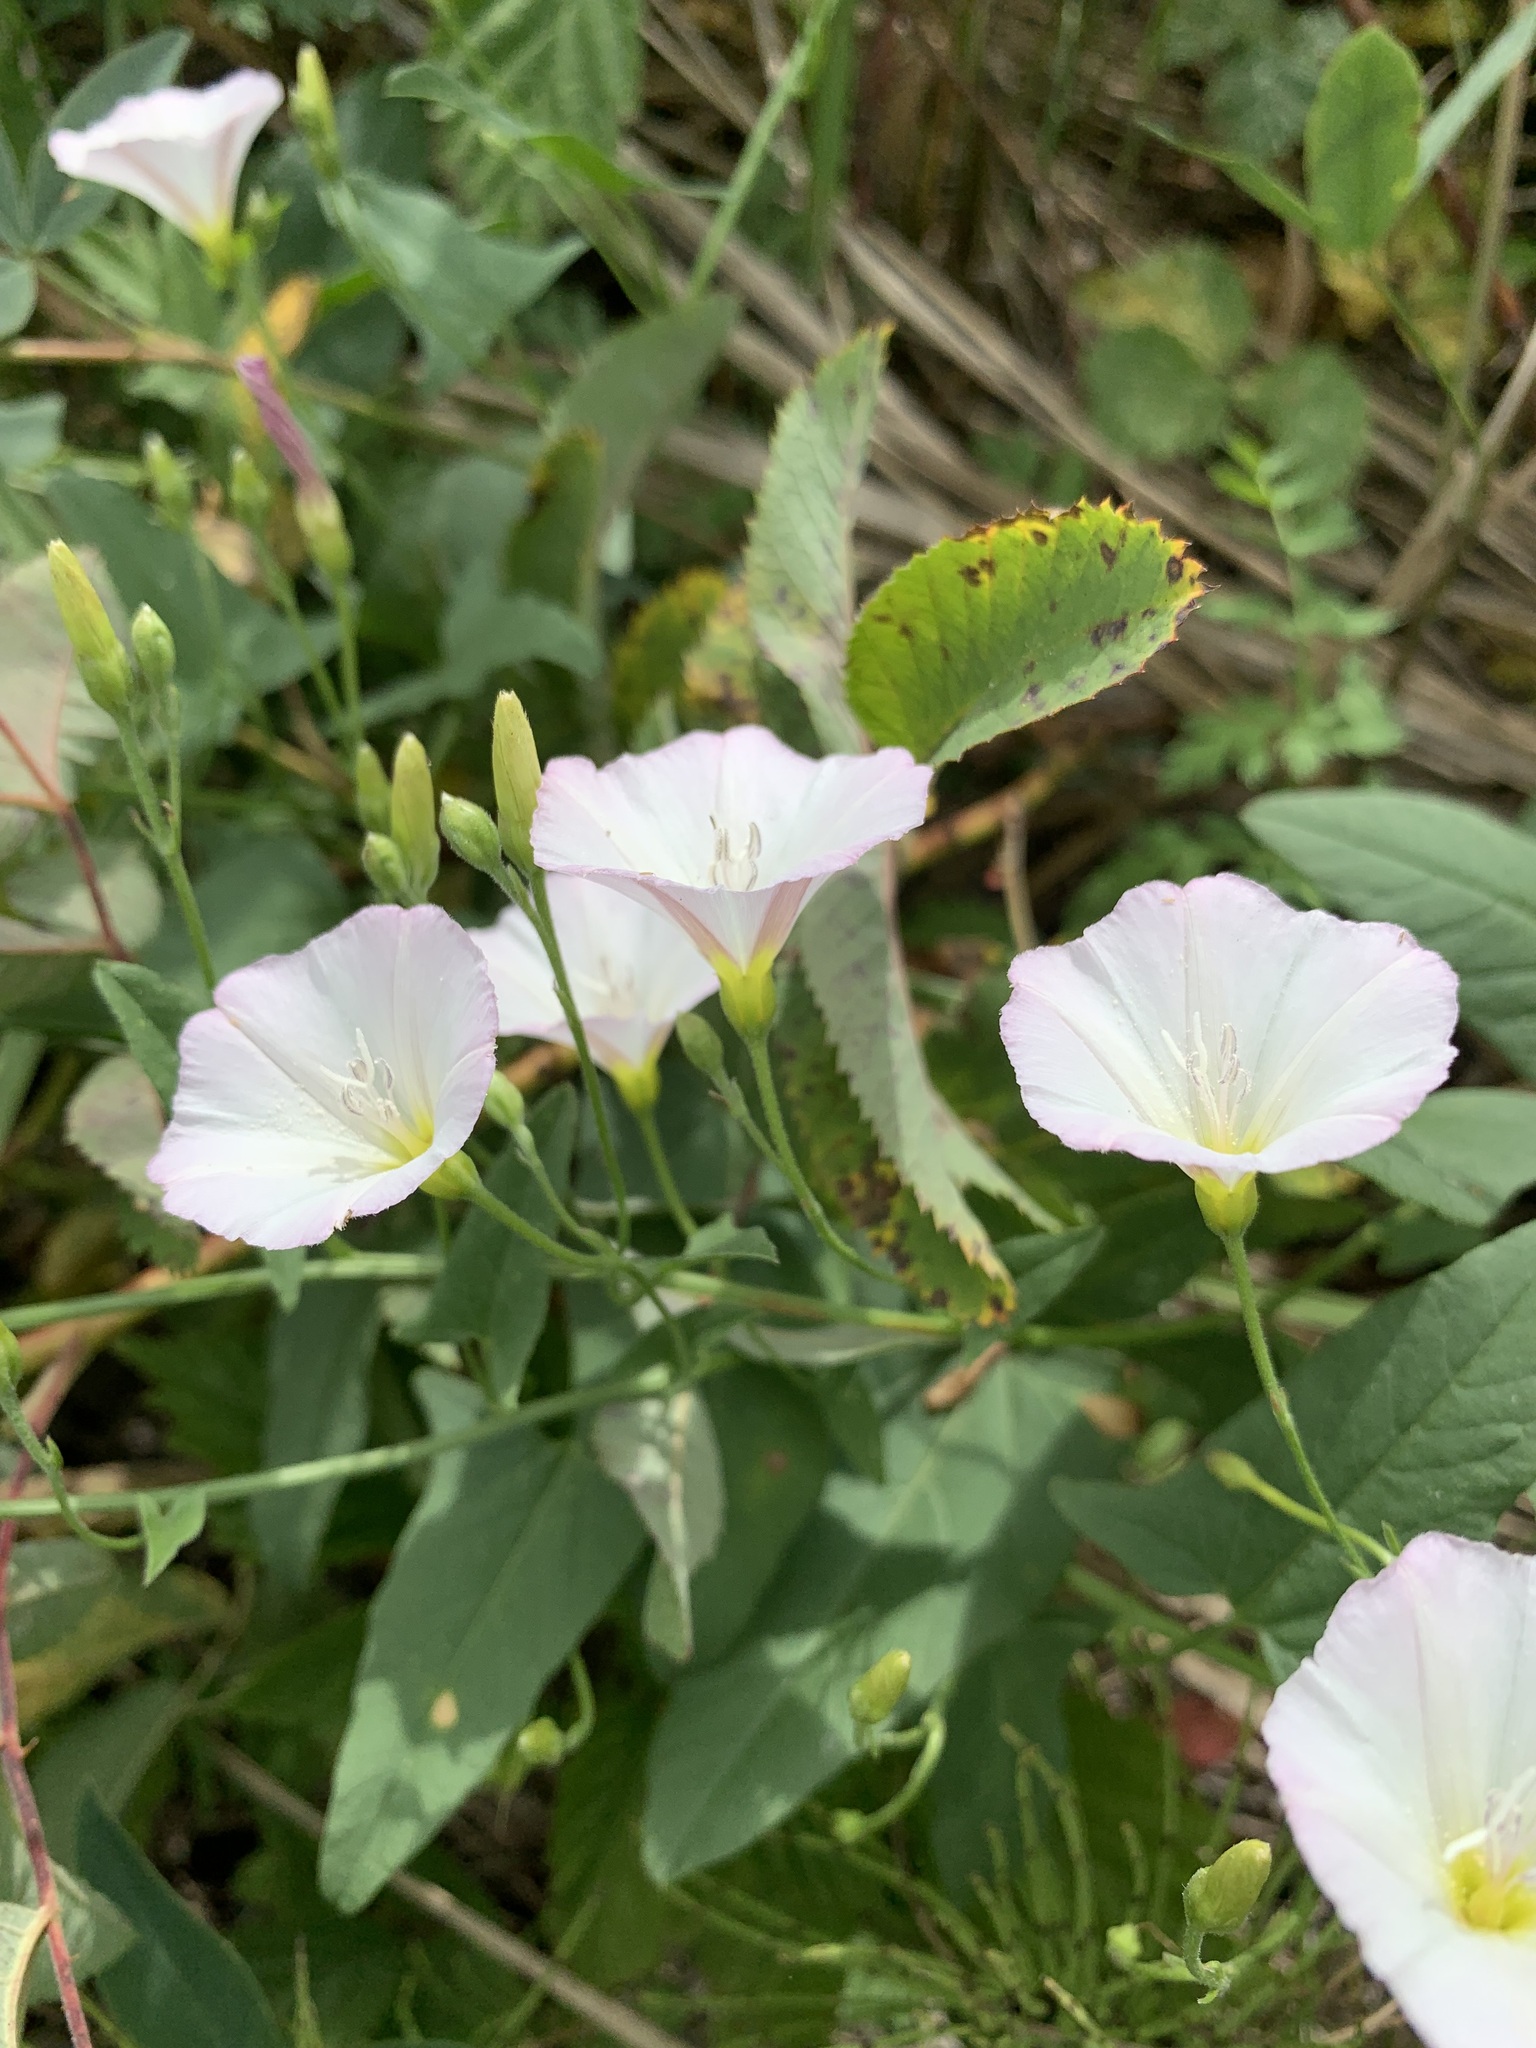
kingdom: Plantae
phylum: Tracheophyta
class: Magnoliopsida
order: Solanales
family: Convolvulaceae
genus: Convolvulus
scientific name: Convolvulus arvensis
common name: Field bindweed
